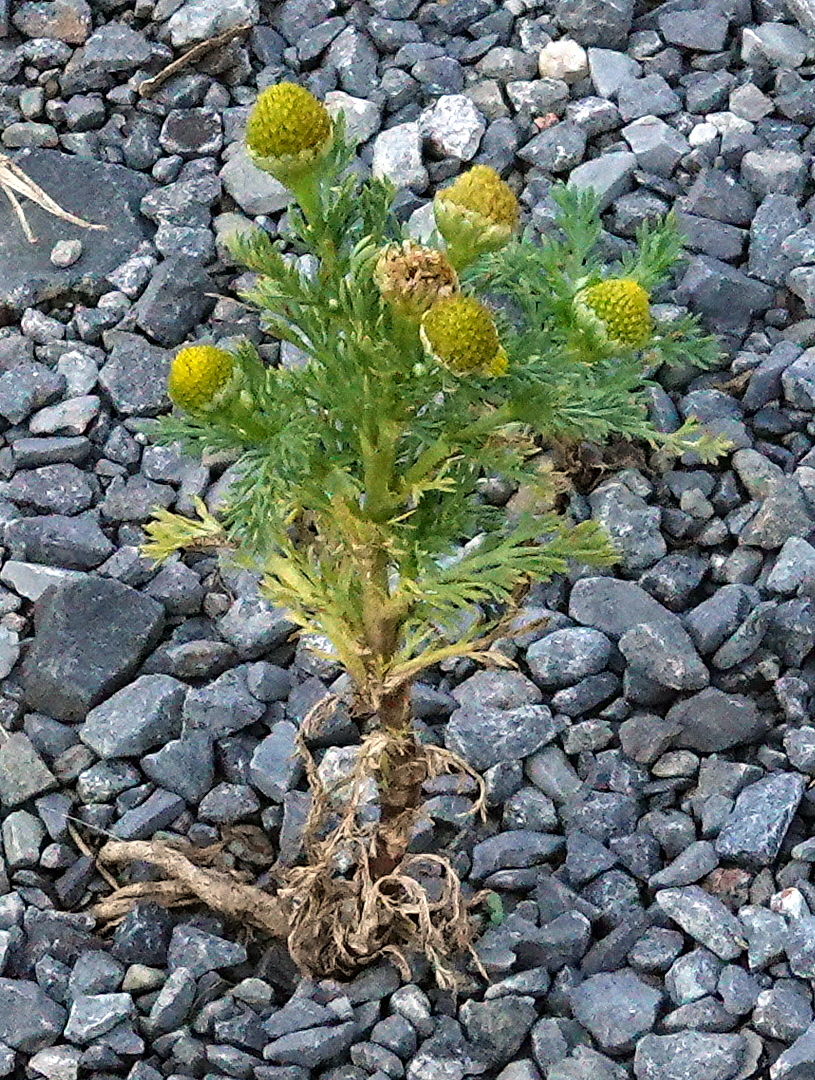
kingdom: Plantae
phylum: Tracheophyta
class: Magnoliopsida
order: Asterales
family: Asteraceae
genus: Matricaria
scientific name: Matricaria discoidea
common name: Disc mayweed
